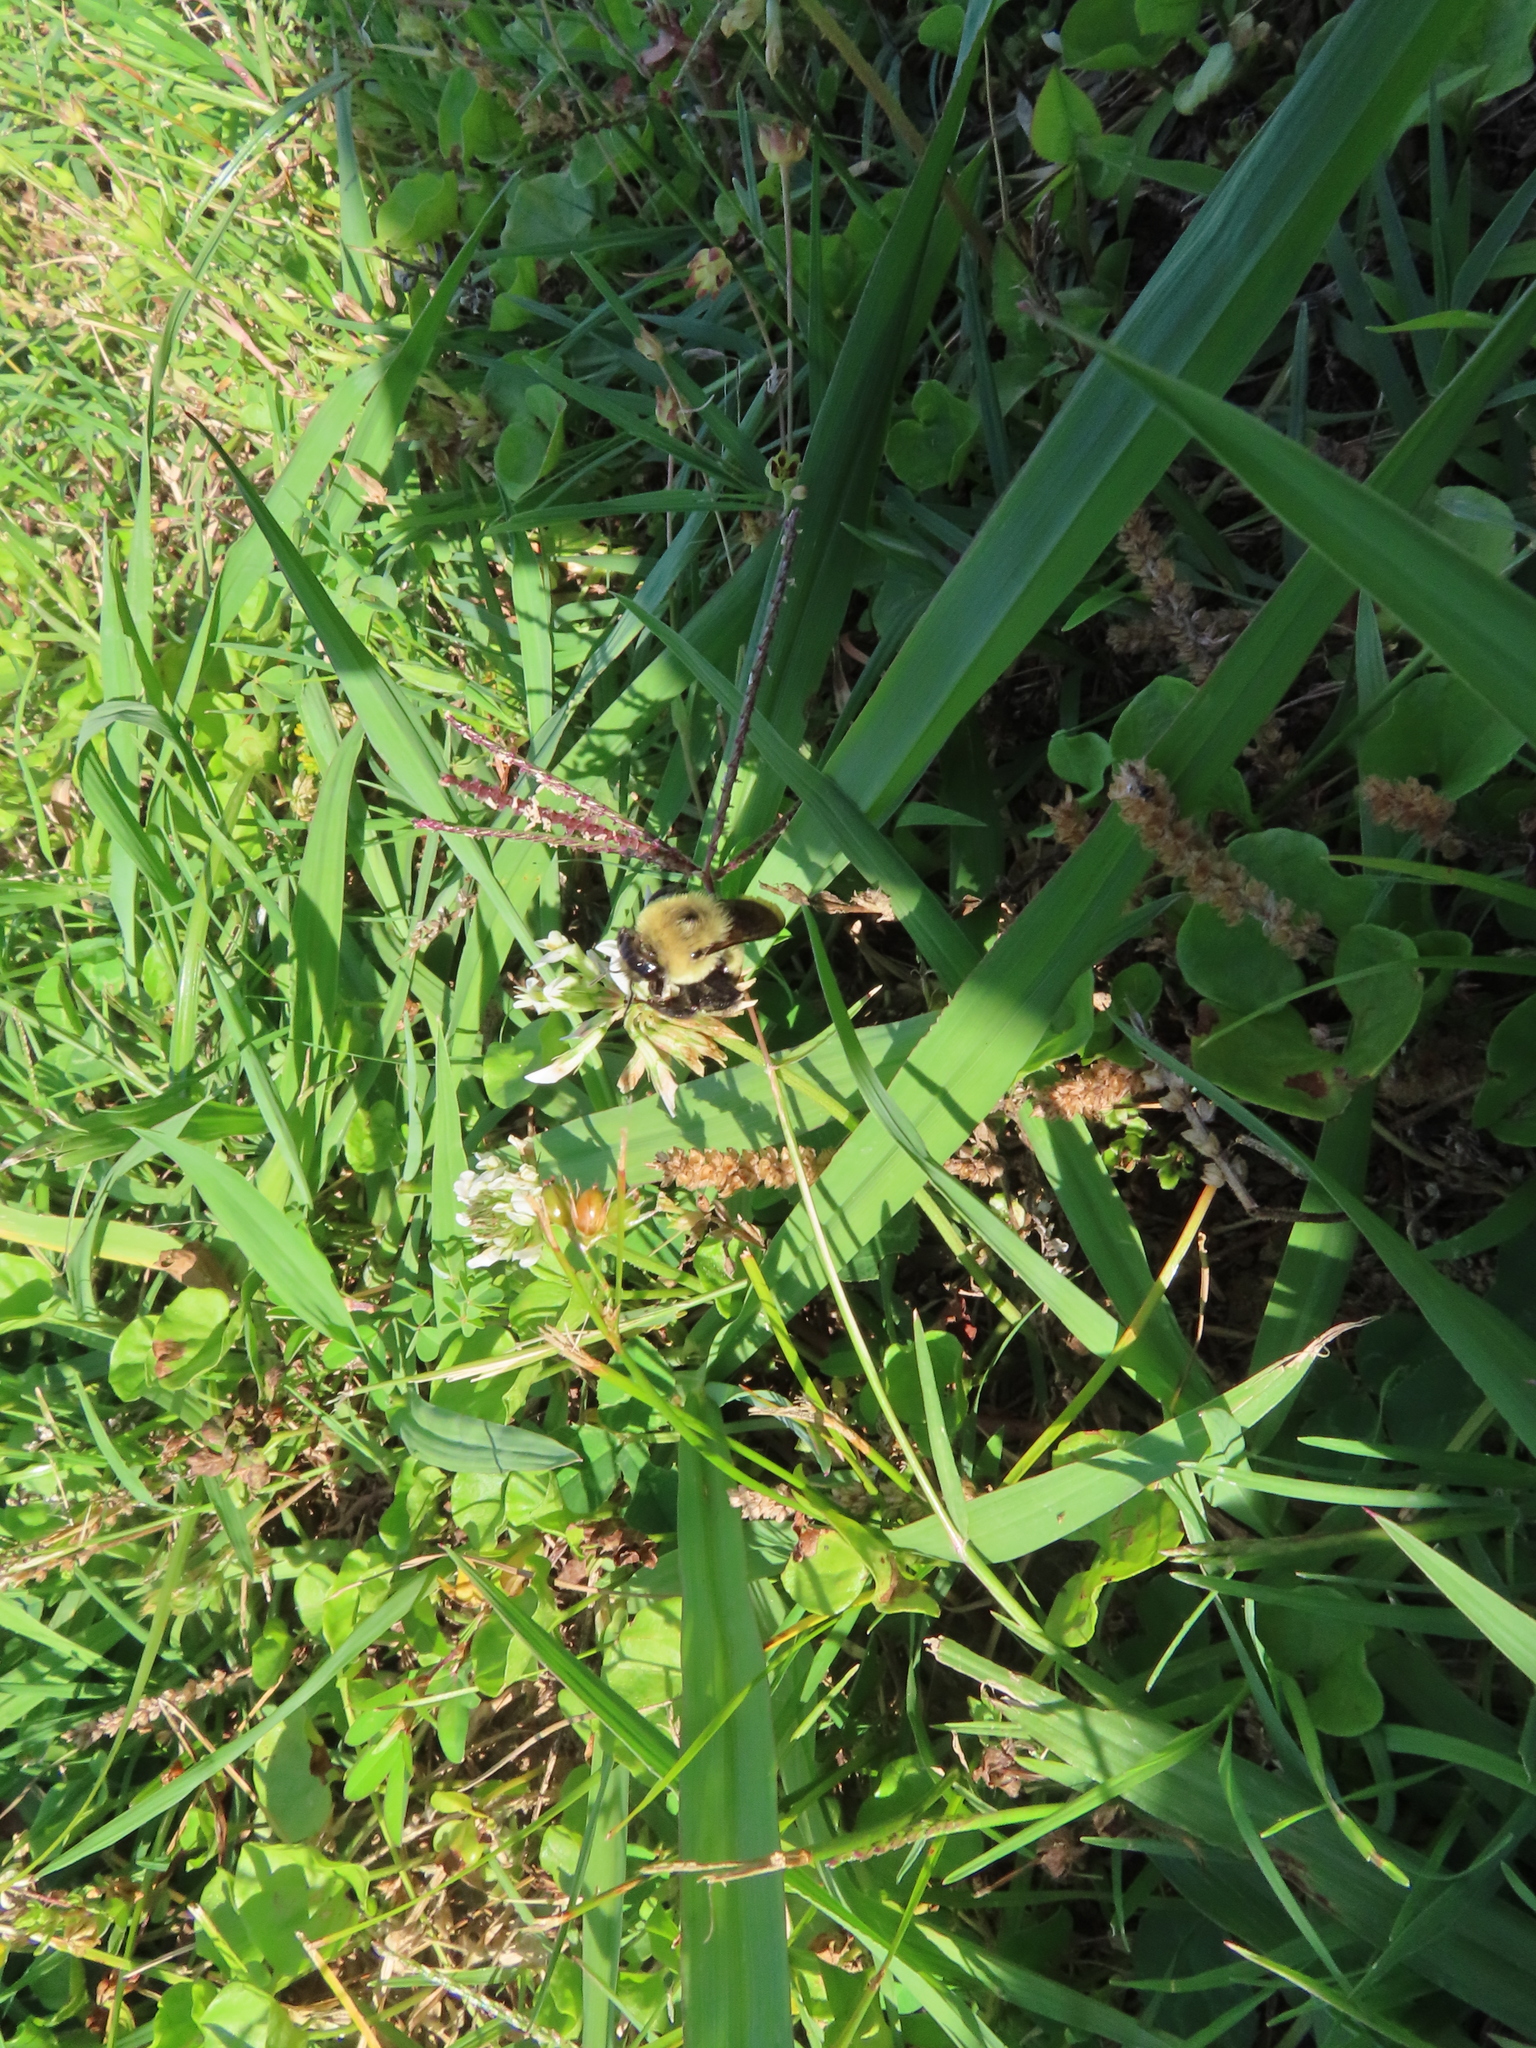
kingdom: Animalia
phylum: Arthropoda
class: Insecta
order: Hymenoptera
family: Apidae
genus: Bombus
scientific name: Bombus griseocollis
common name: Brown-belted bumble bee
